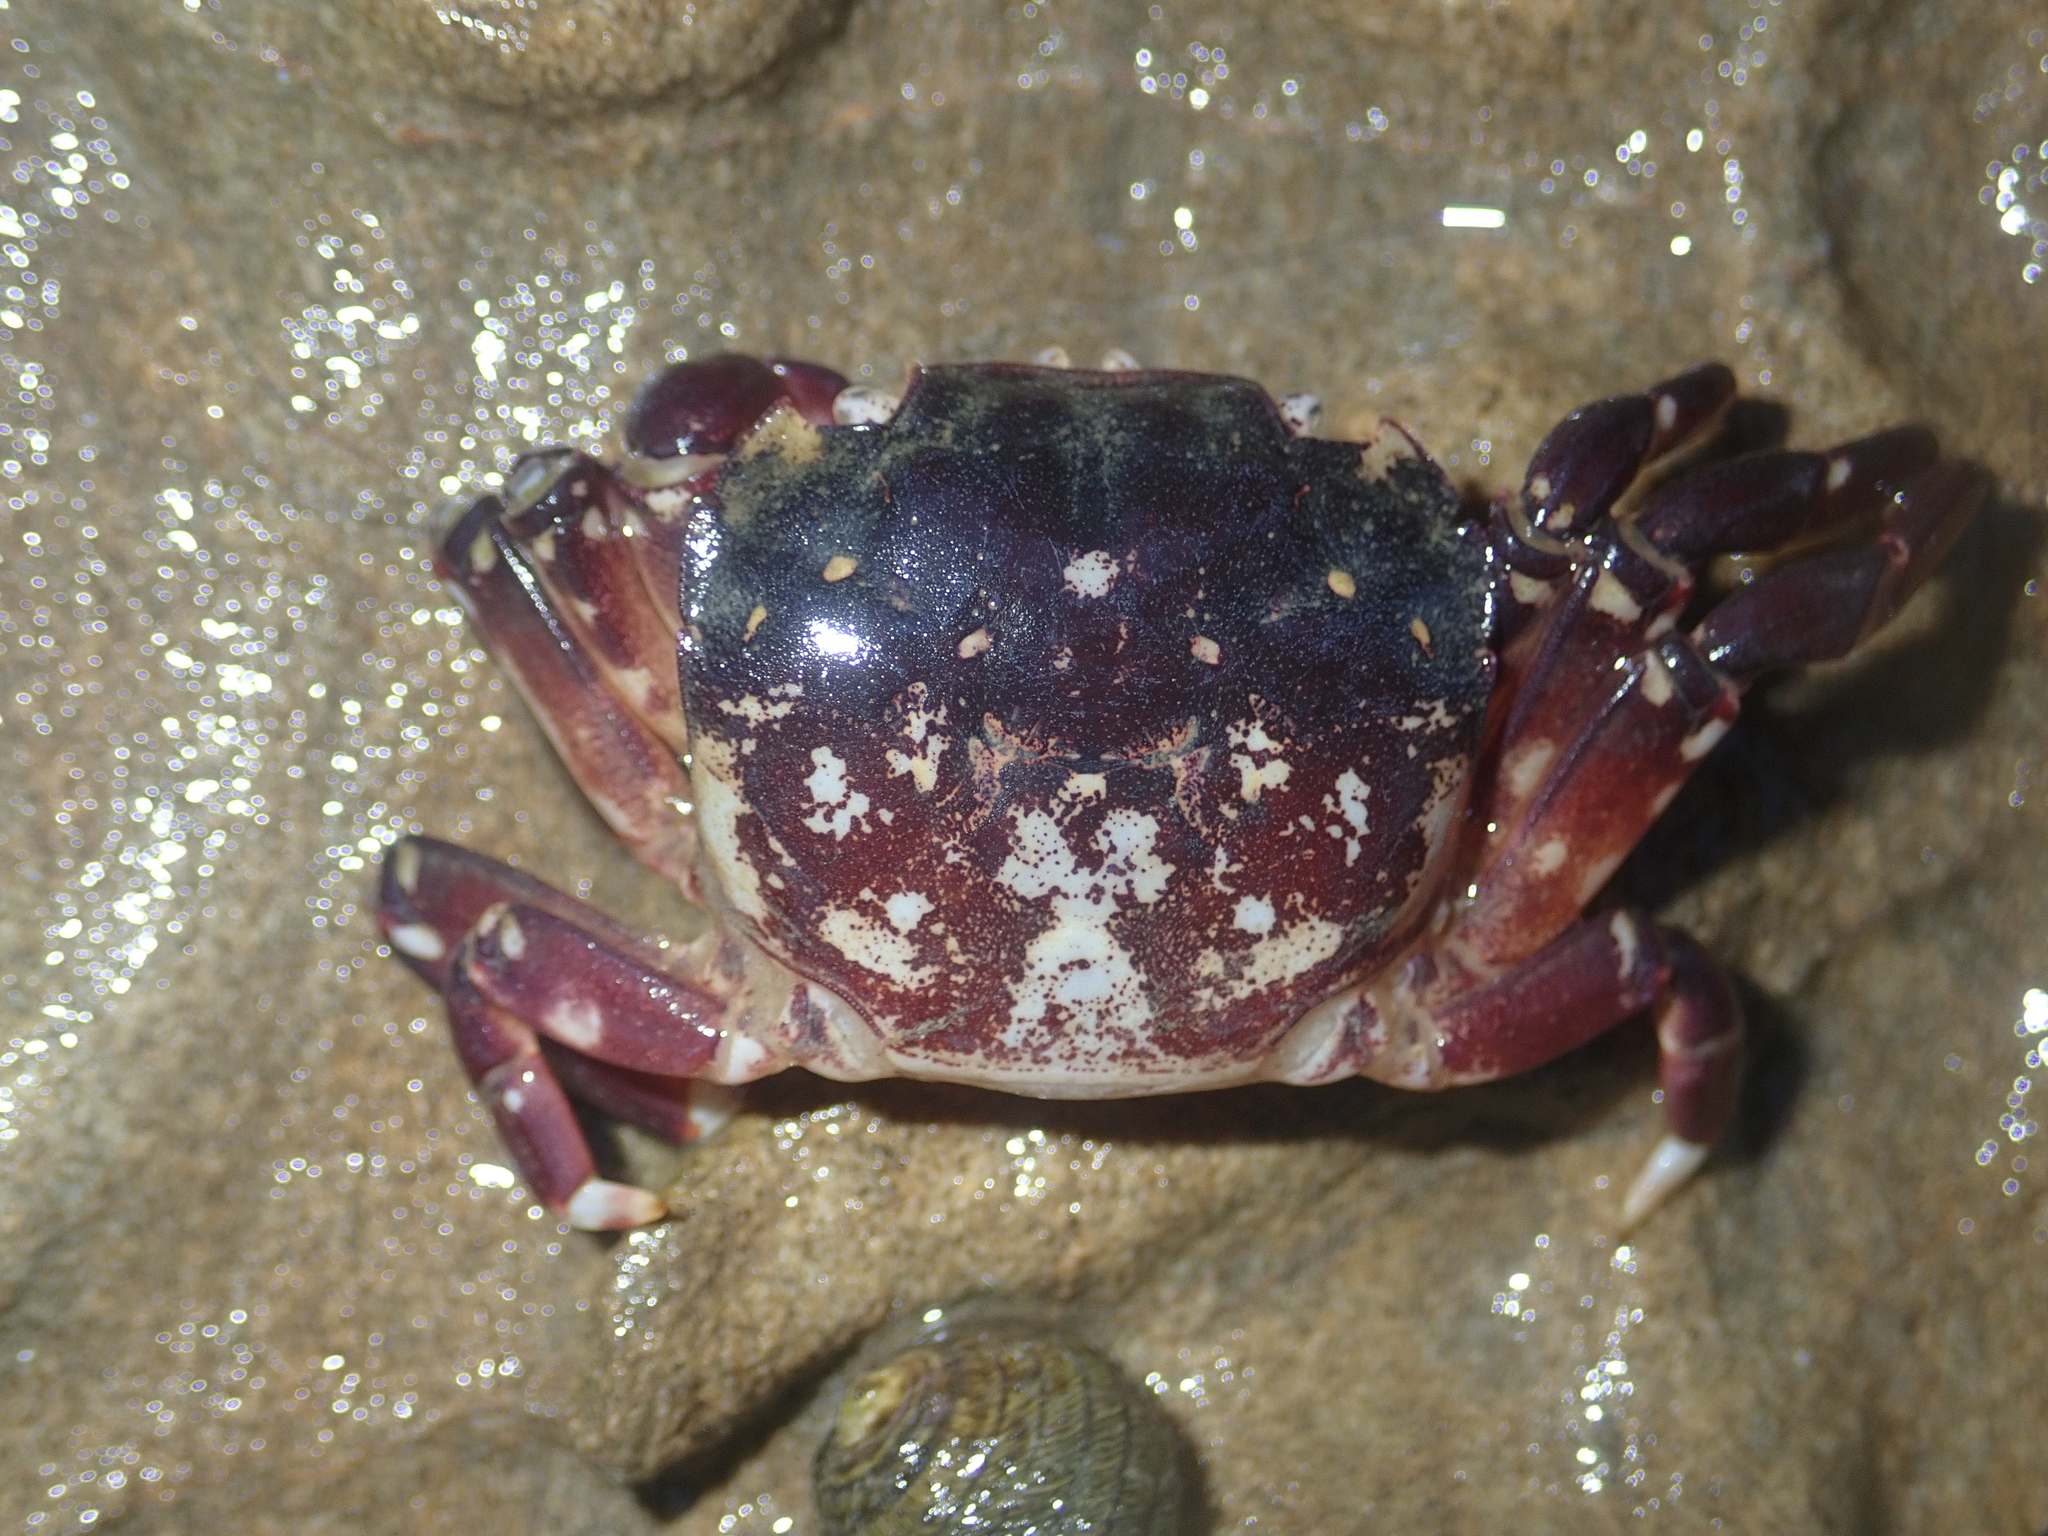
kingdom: Animalia
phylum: Arthropoda
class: Malacostraca
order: Decapoda
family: Varunidae
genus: Hemigrapsus
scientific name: Hemigrapsus sexdentatus
